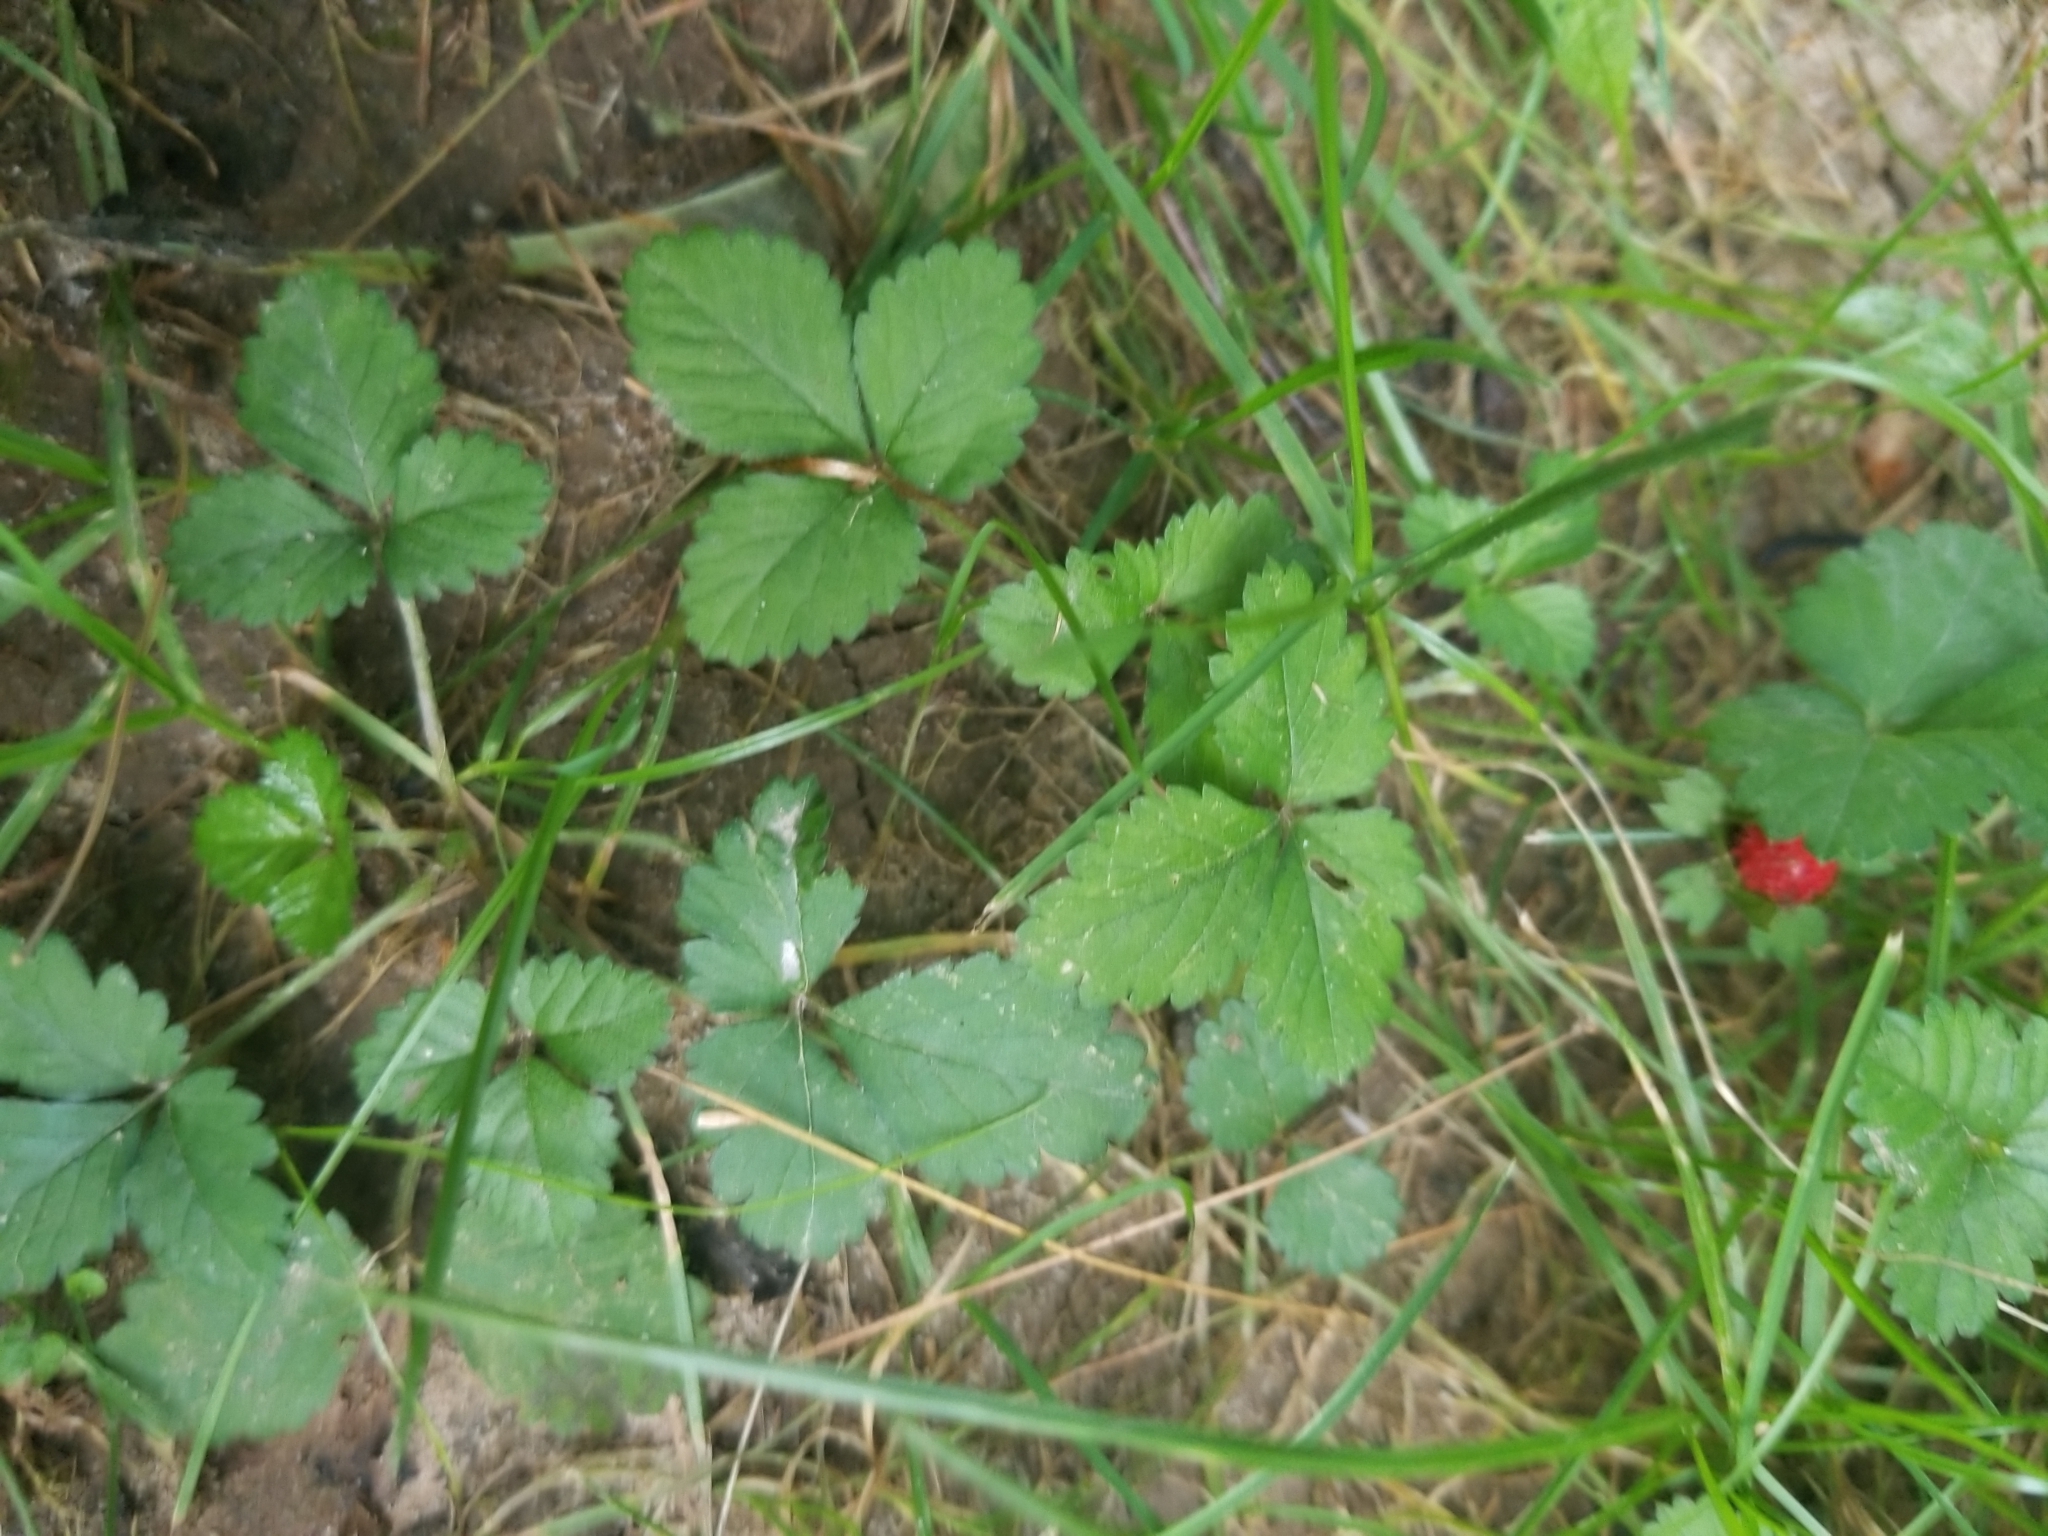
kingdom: Plantae
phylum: Tracheophyta
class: Magnoliopsida
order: Rosales
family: Rosaceae
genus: Potentilla
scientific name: Potentilla indica
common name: Yellow-flowered strawberry
